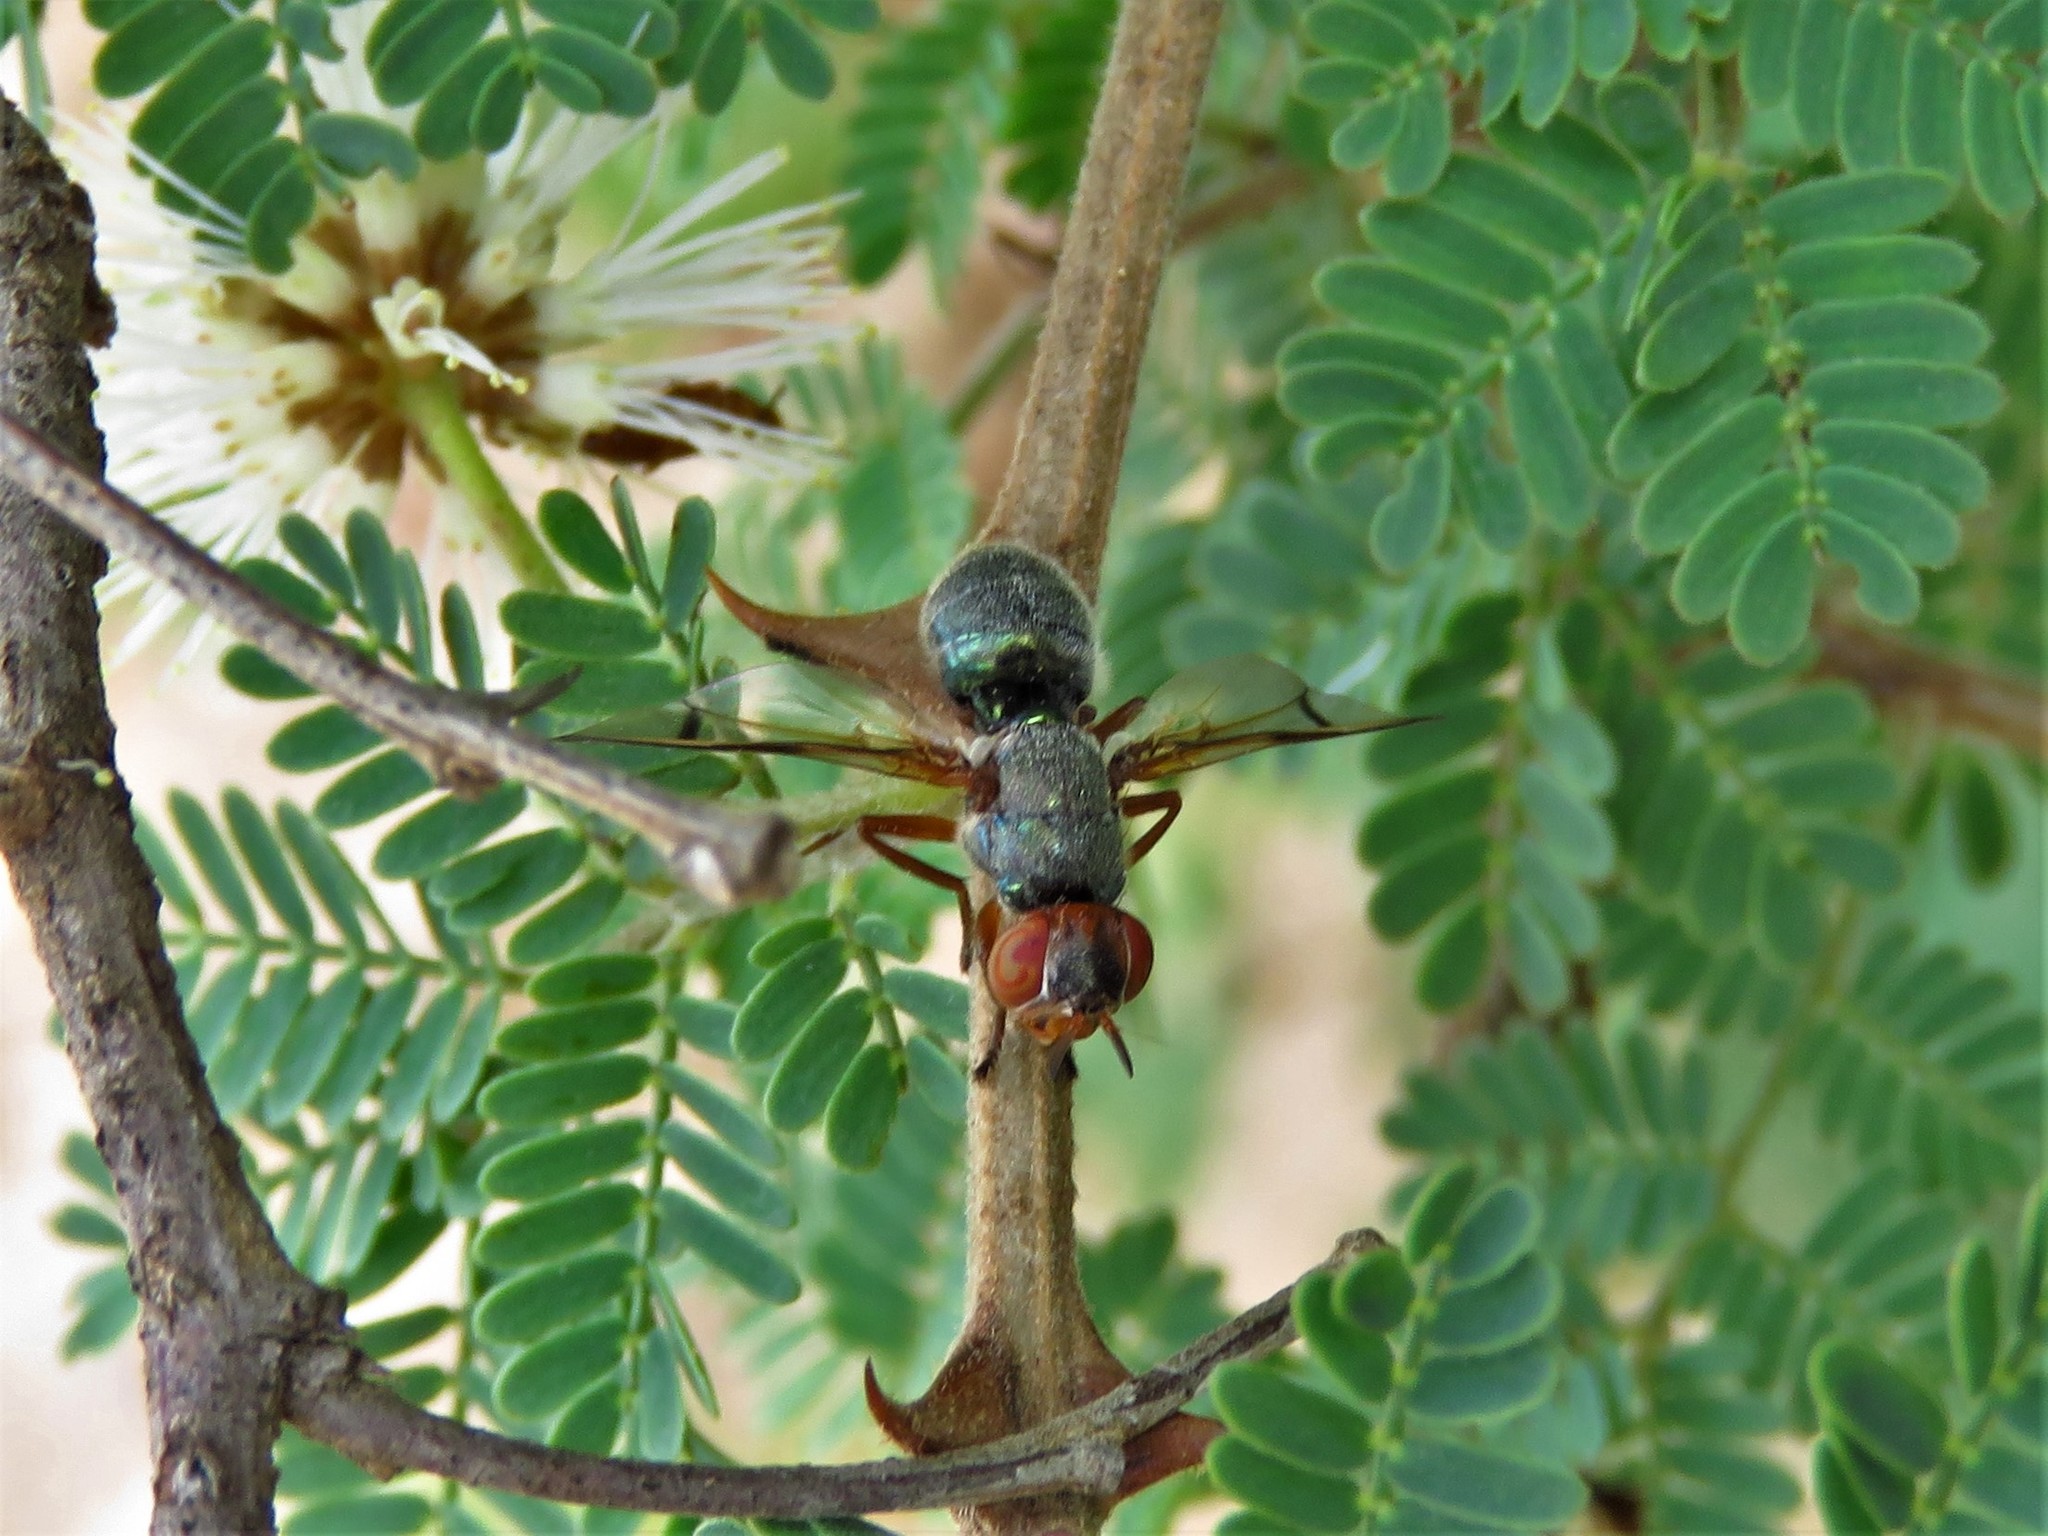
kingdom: Animalia
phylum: Arthropoda
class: Insecta
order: Diptera
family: Platystomatidae
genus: Senopterina
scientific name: Senopterina caerulescens
